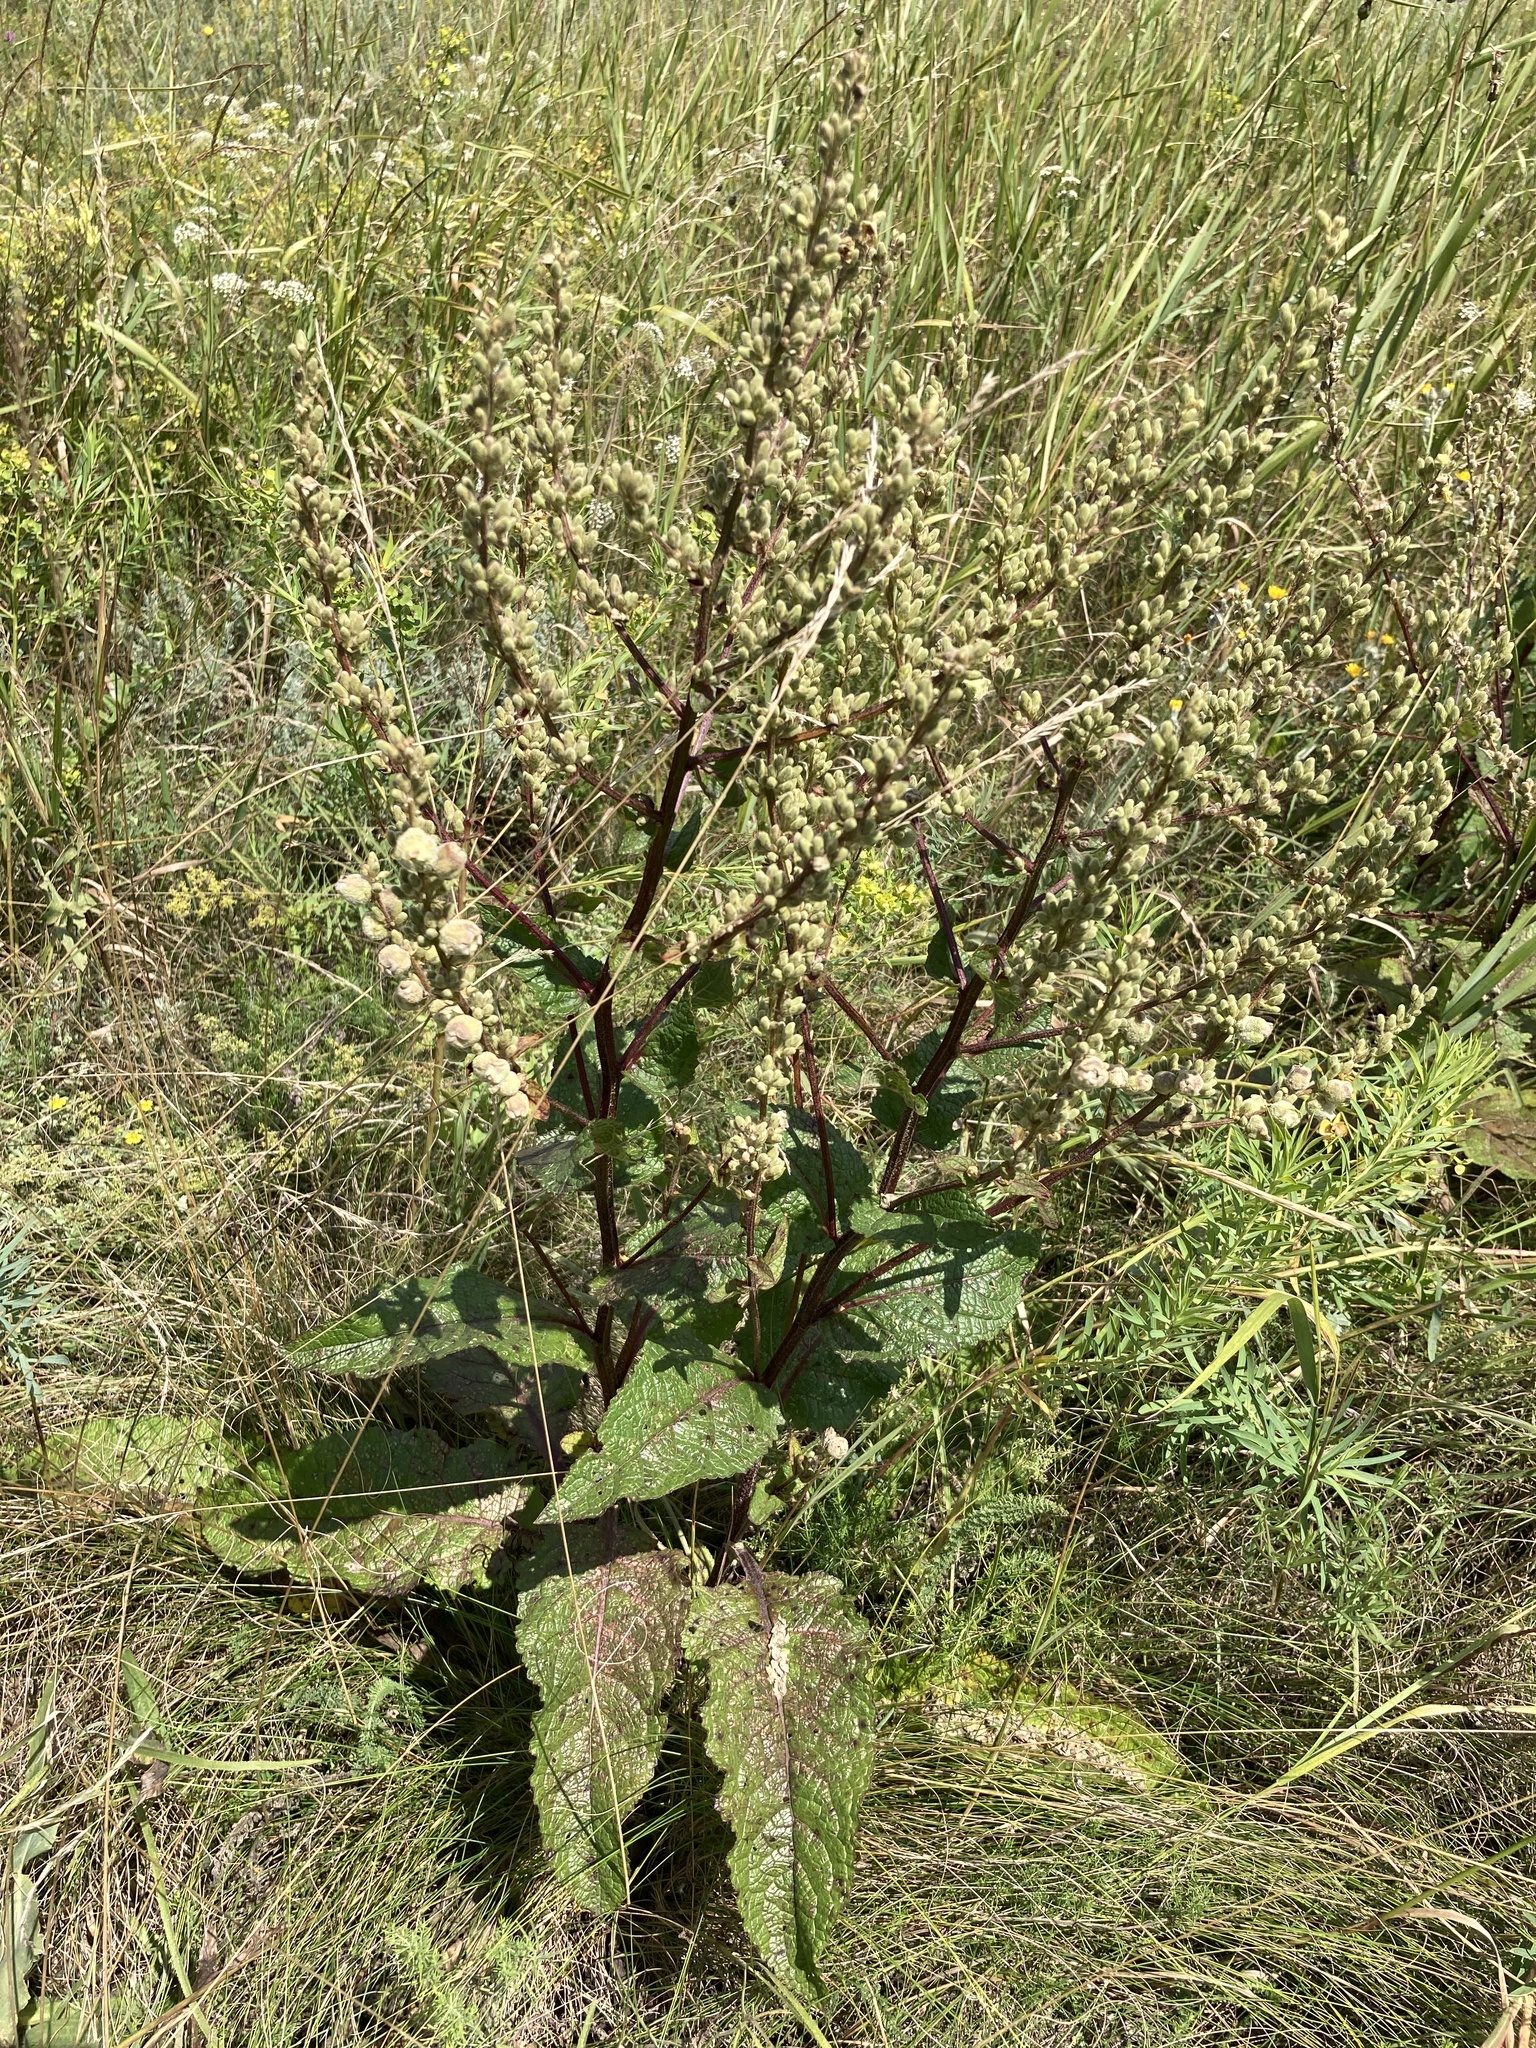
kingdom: Plantae
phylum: Tracheophyta
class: Magnoliopsida
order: Lamiales
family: Scrophulariaceae
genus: Verbascum
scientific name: Verbascum chaixii
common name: Nettle-leaved mullein
